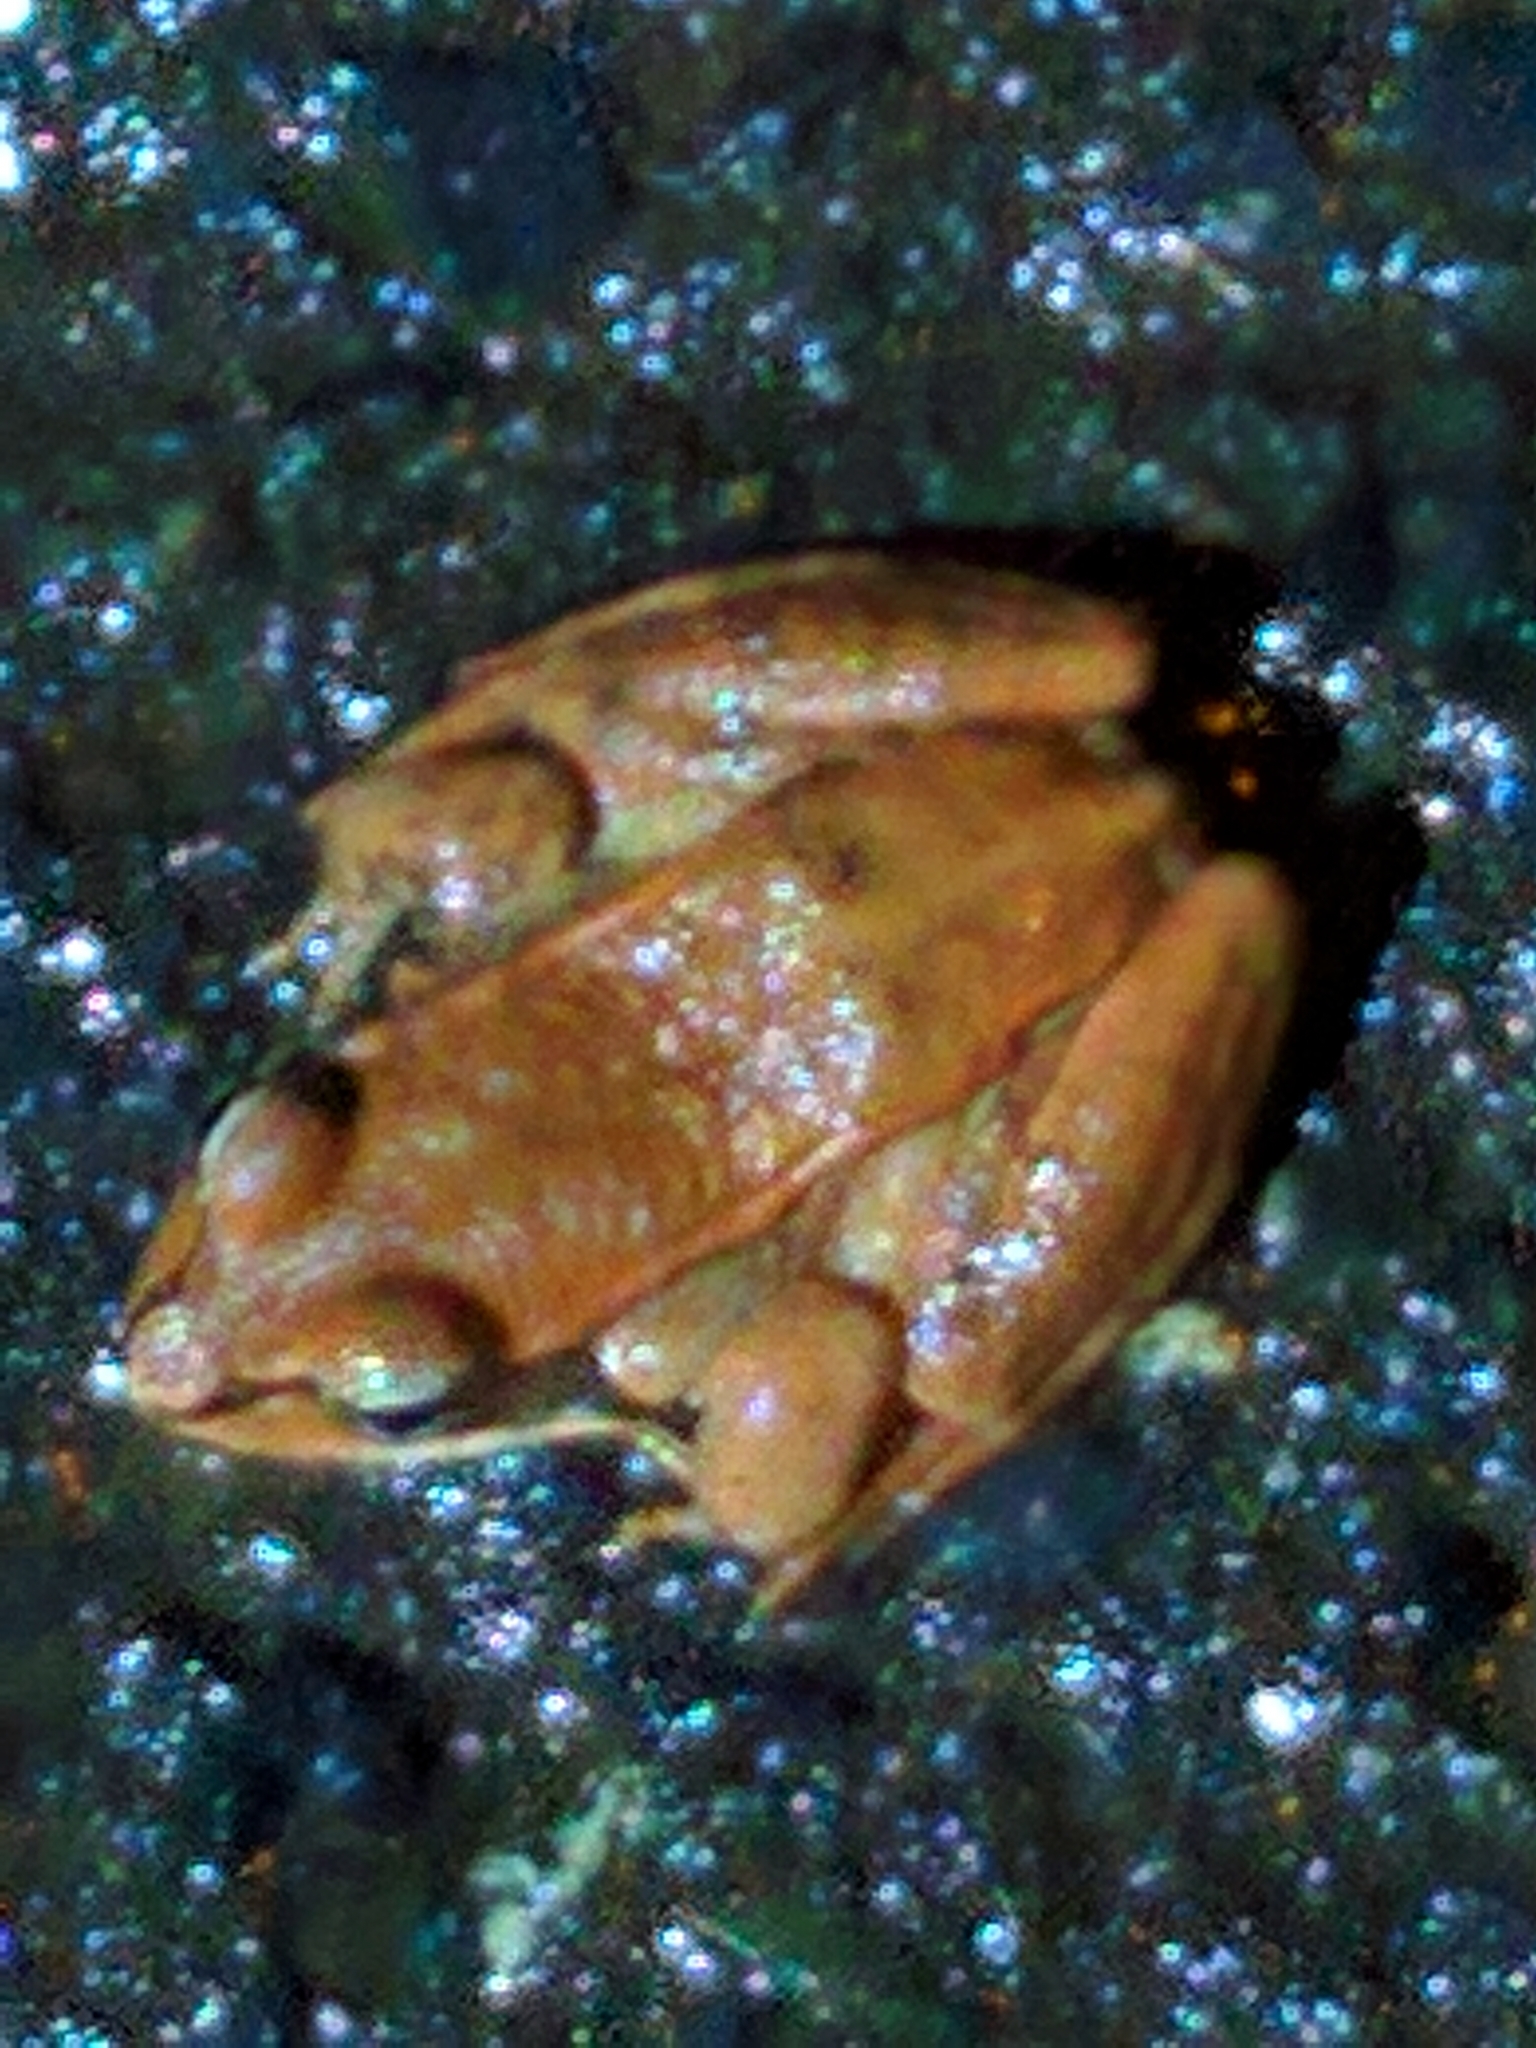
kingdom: Animalia
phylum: Chordata
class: Amphibia
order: Anura
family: Ranidae
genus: Lithobates
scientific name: Lithobates sylvaticus
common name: Wood frog
